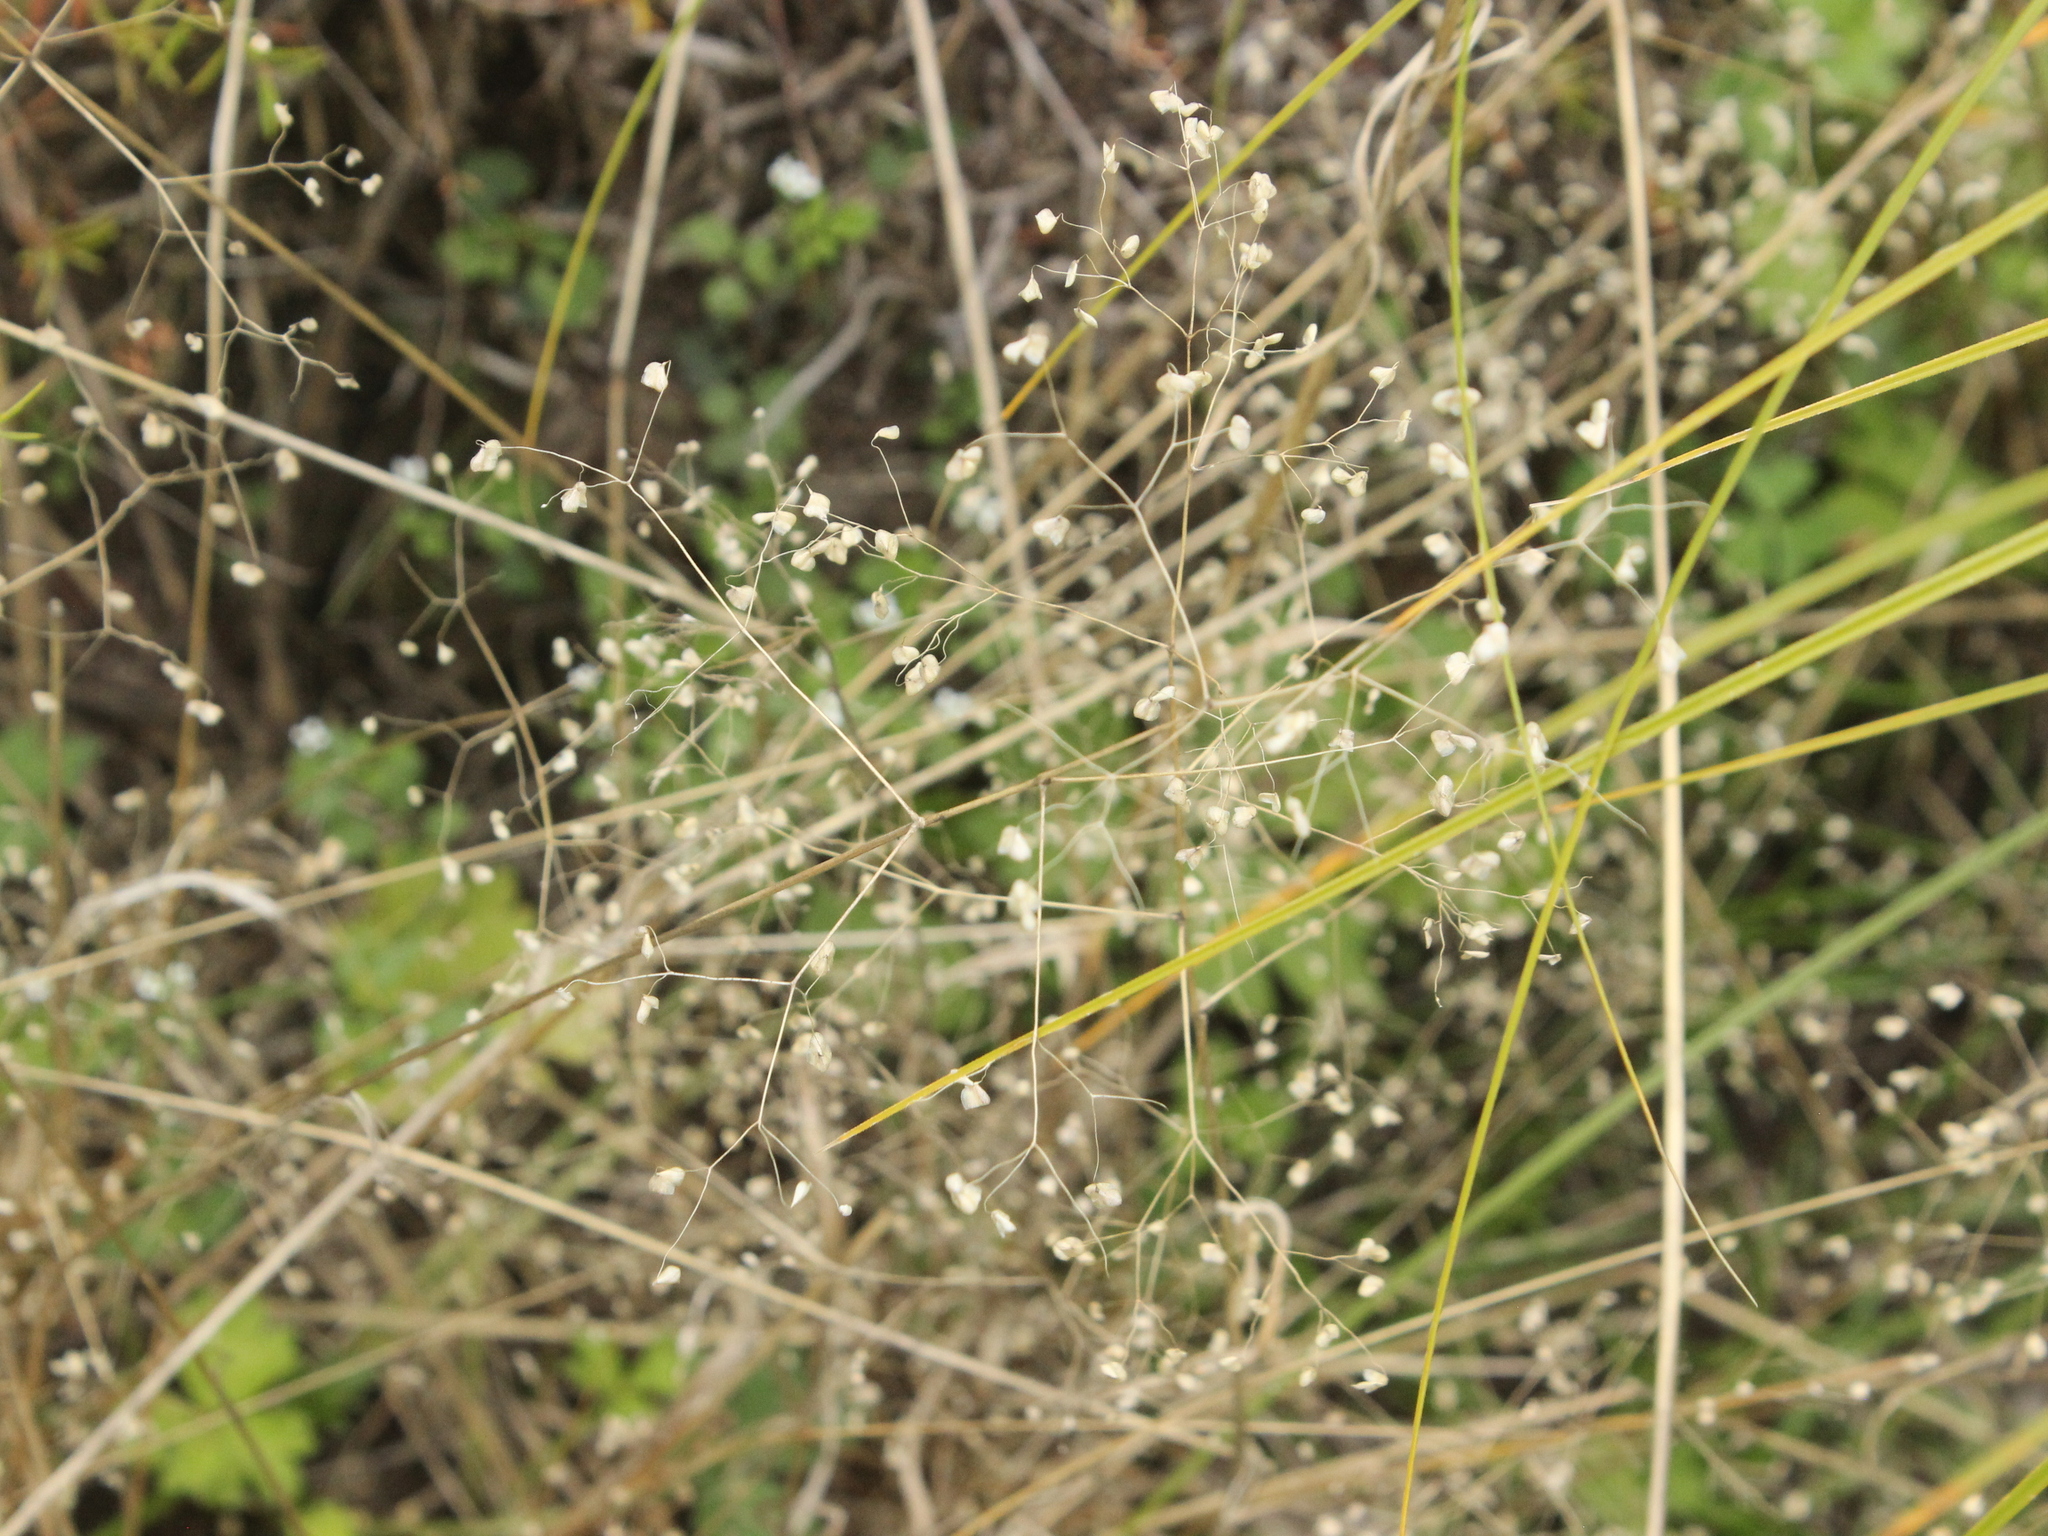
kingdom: Plantae
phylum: Tracheophyta
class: Liliopsida
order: Poales
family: Poaceae
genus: Briza
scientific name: Briza minor
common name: Lesser quaking-grass
